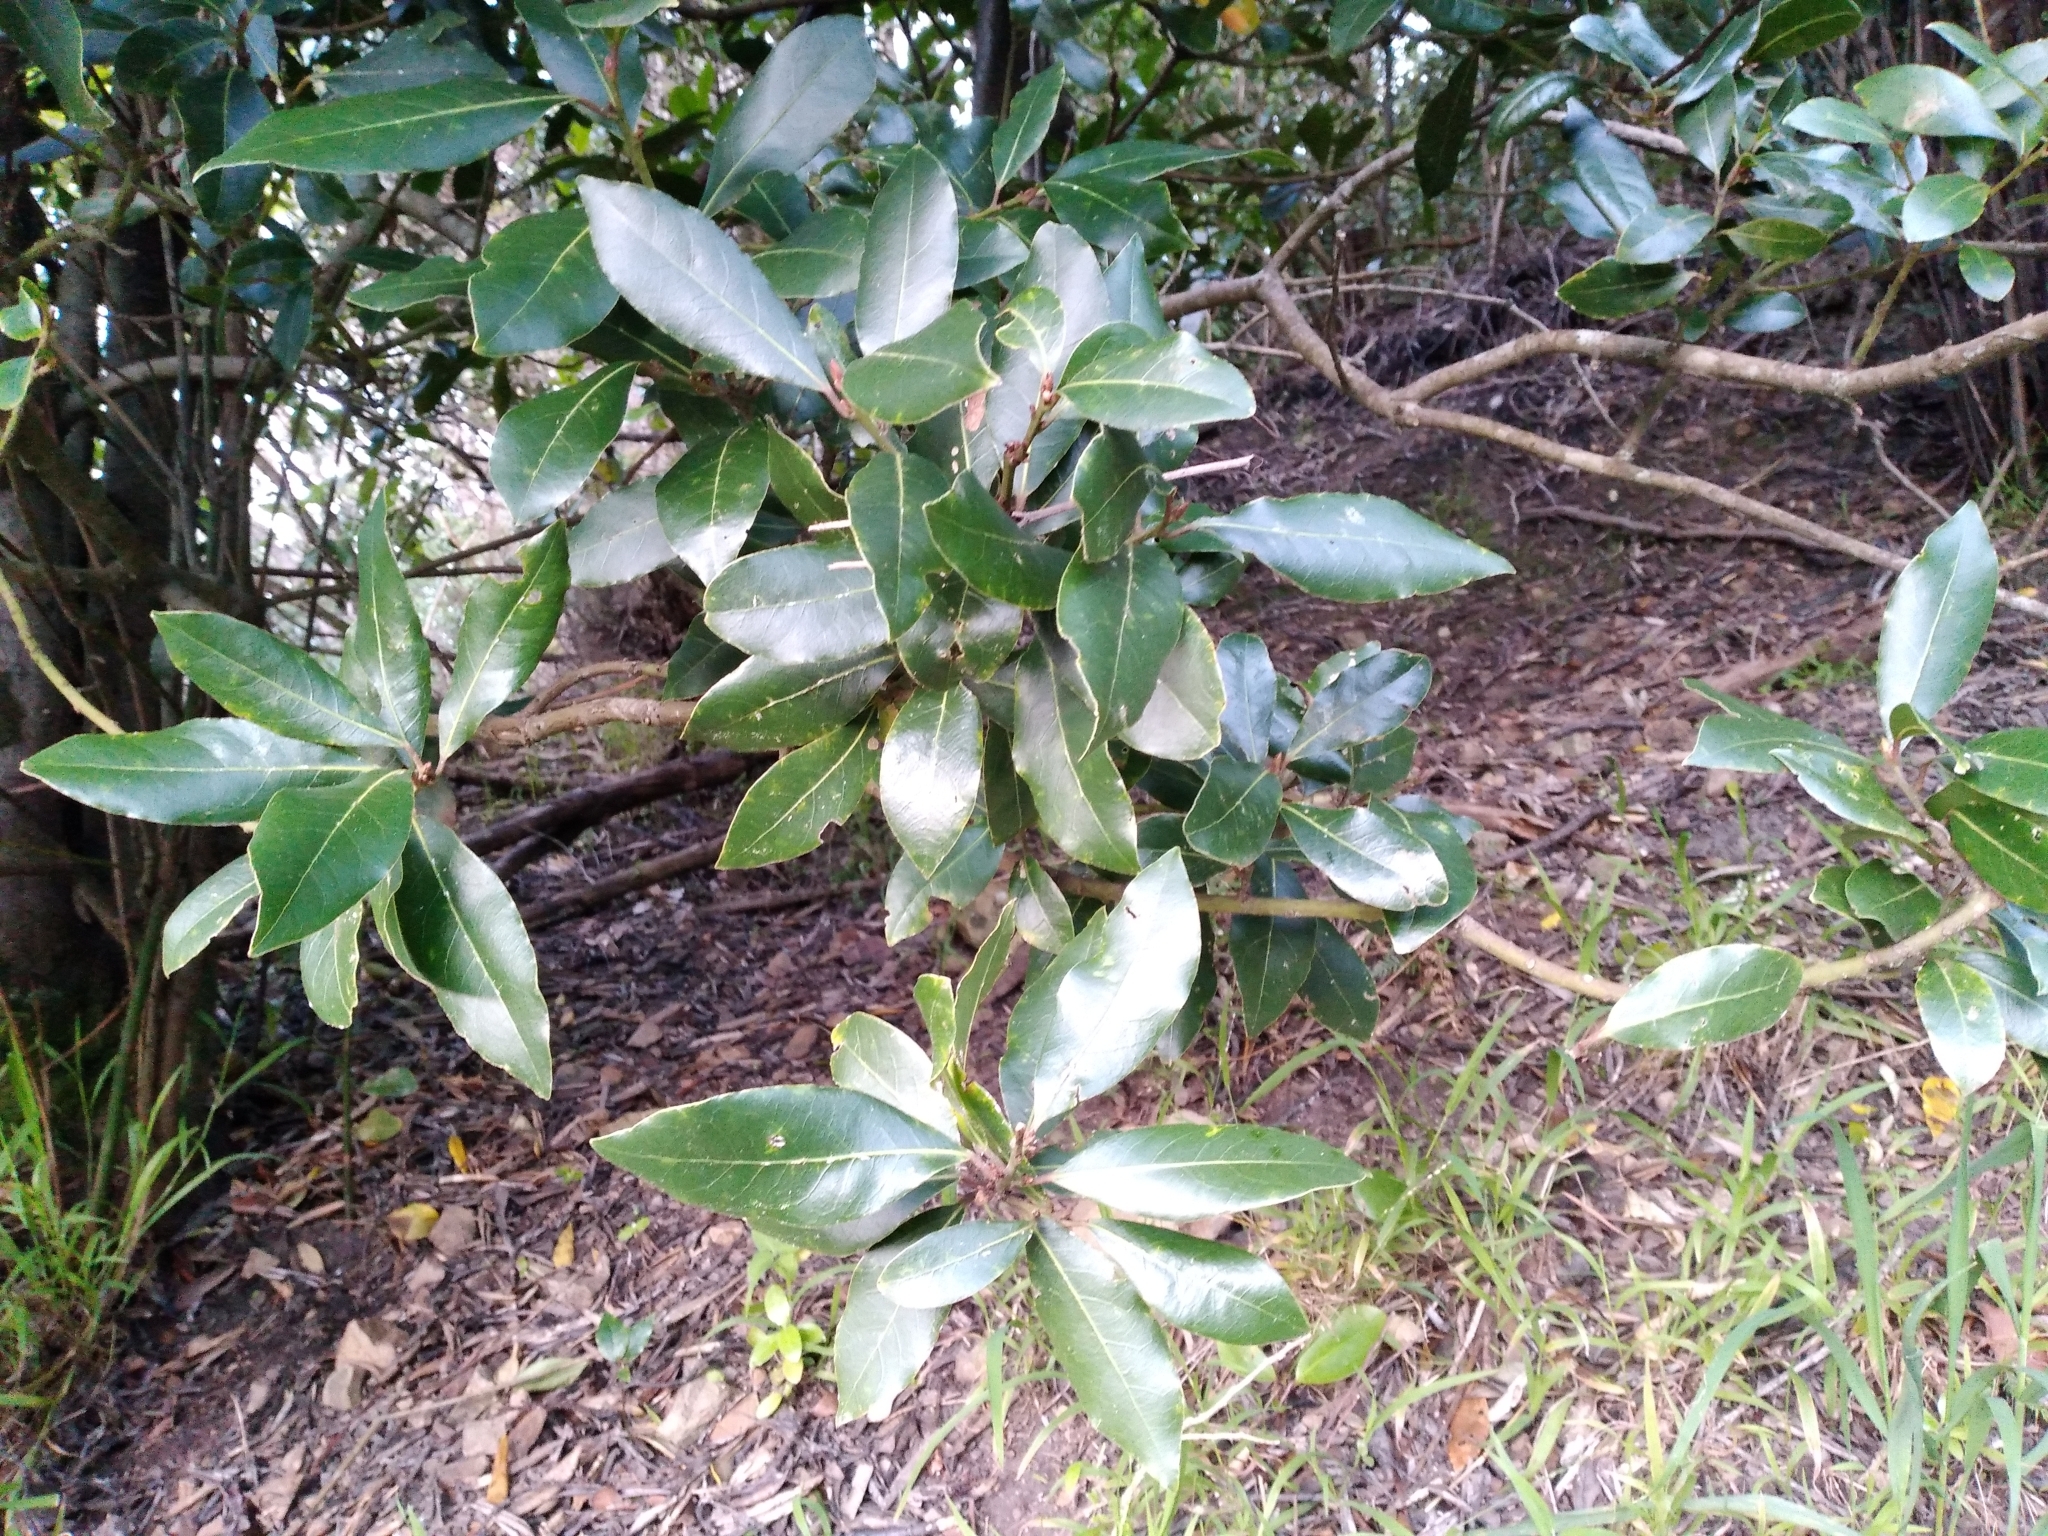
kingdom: Plantae
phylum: Tracheophyta
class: Magnoliopsida
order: Laurales
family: Lauraceae
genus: Laurus
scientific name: Laurus nobilis
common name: Bay
